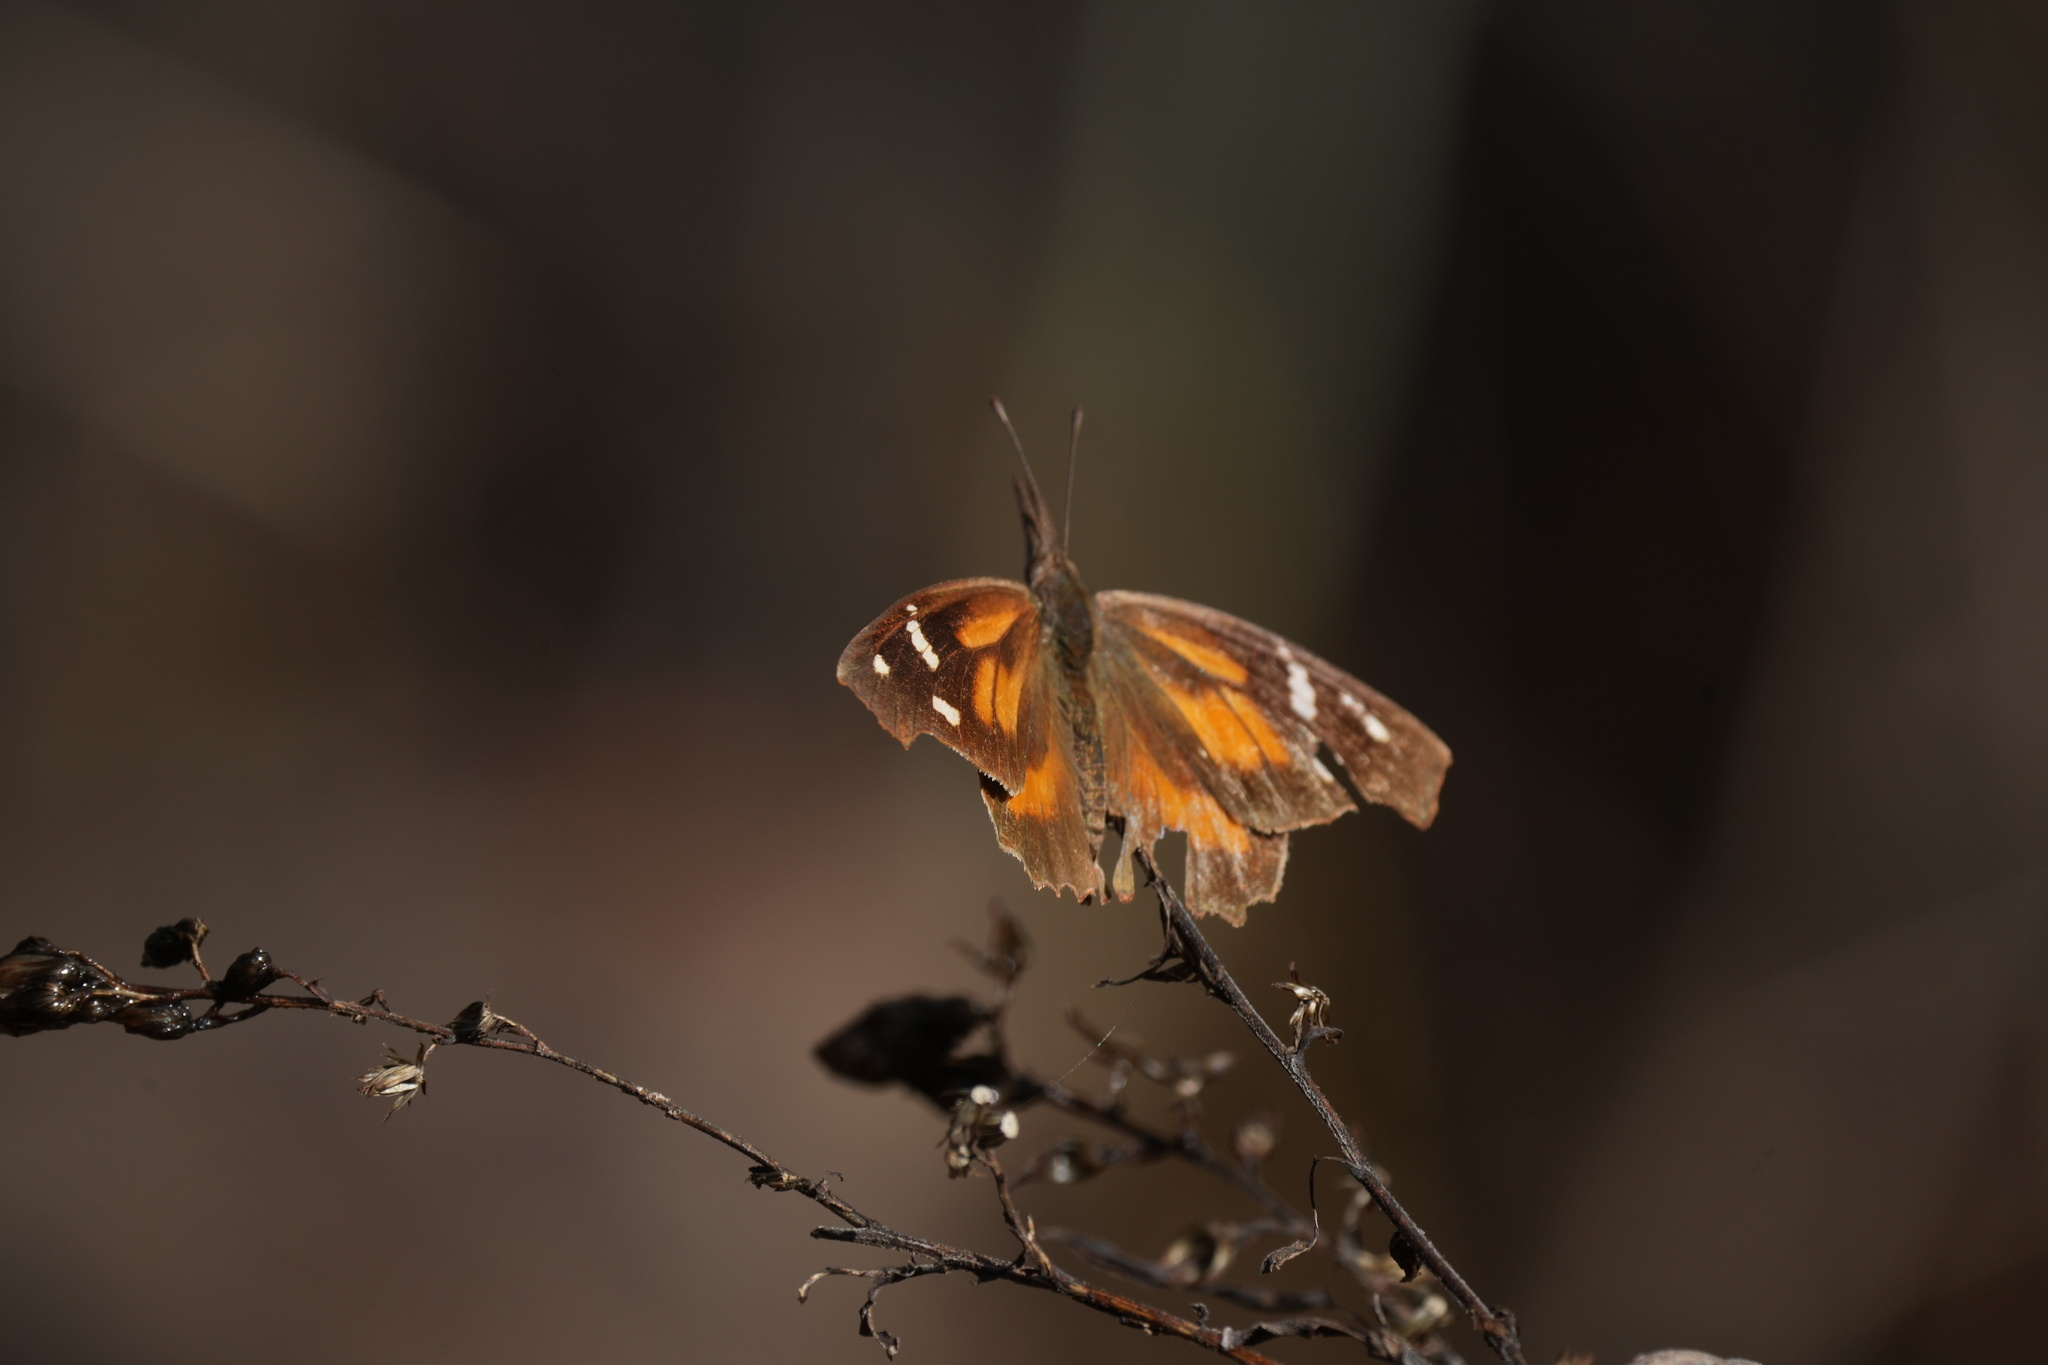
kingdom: Animalia
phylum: Arthropoda
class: Insecta
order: Lepidoptera
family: Nymphalidae
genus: Libytheana
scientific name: Libytheana carinenta
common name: American snout
